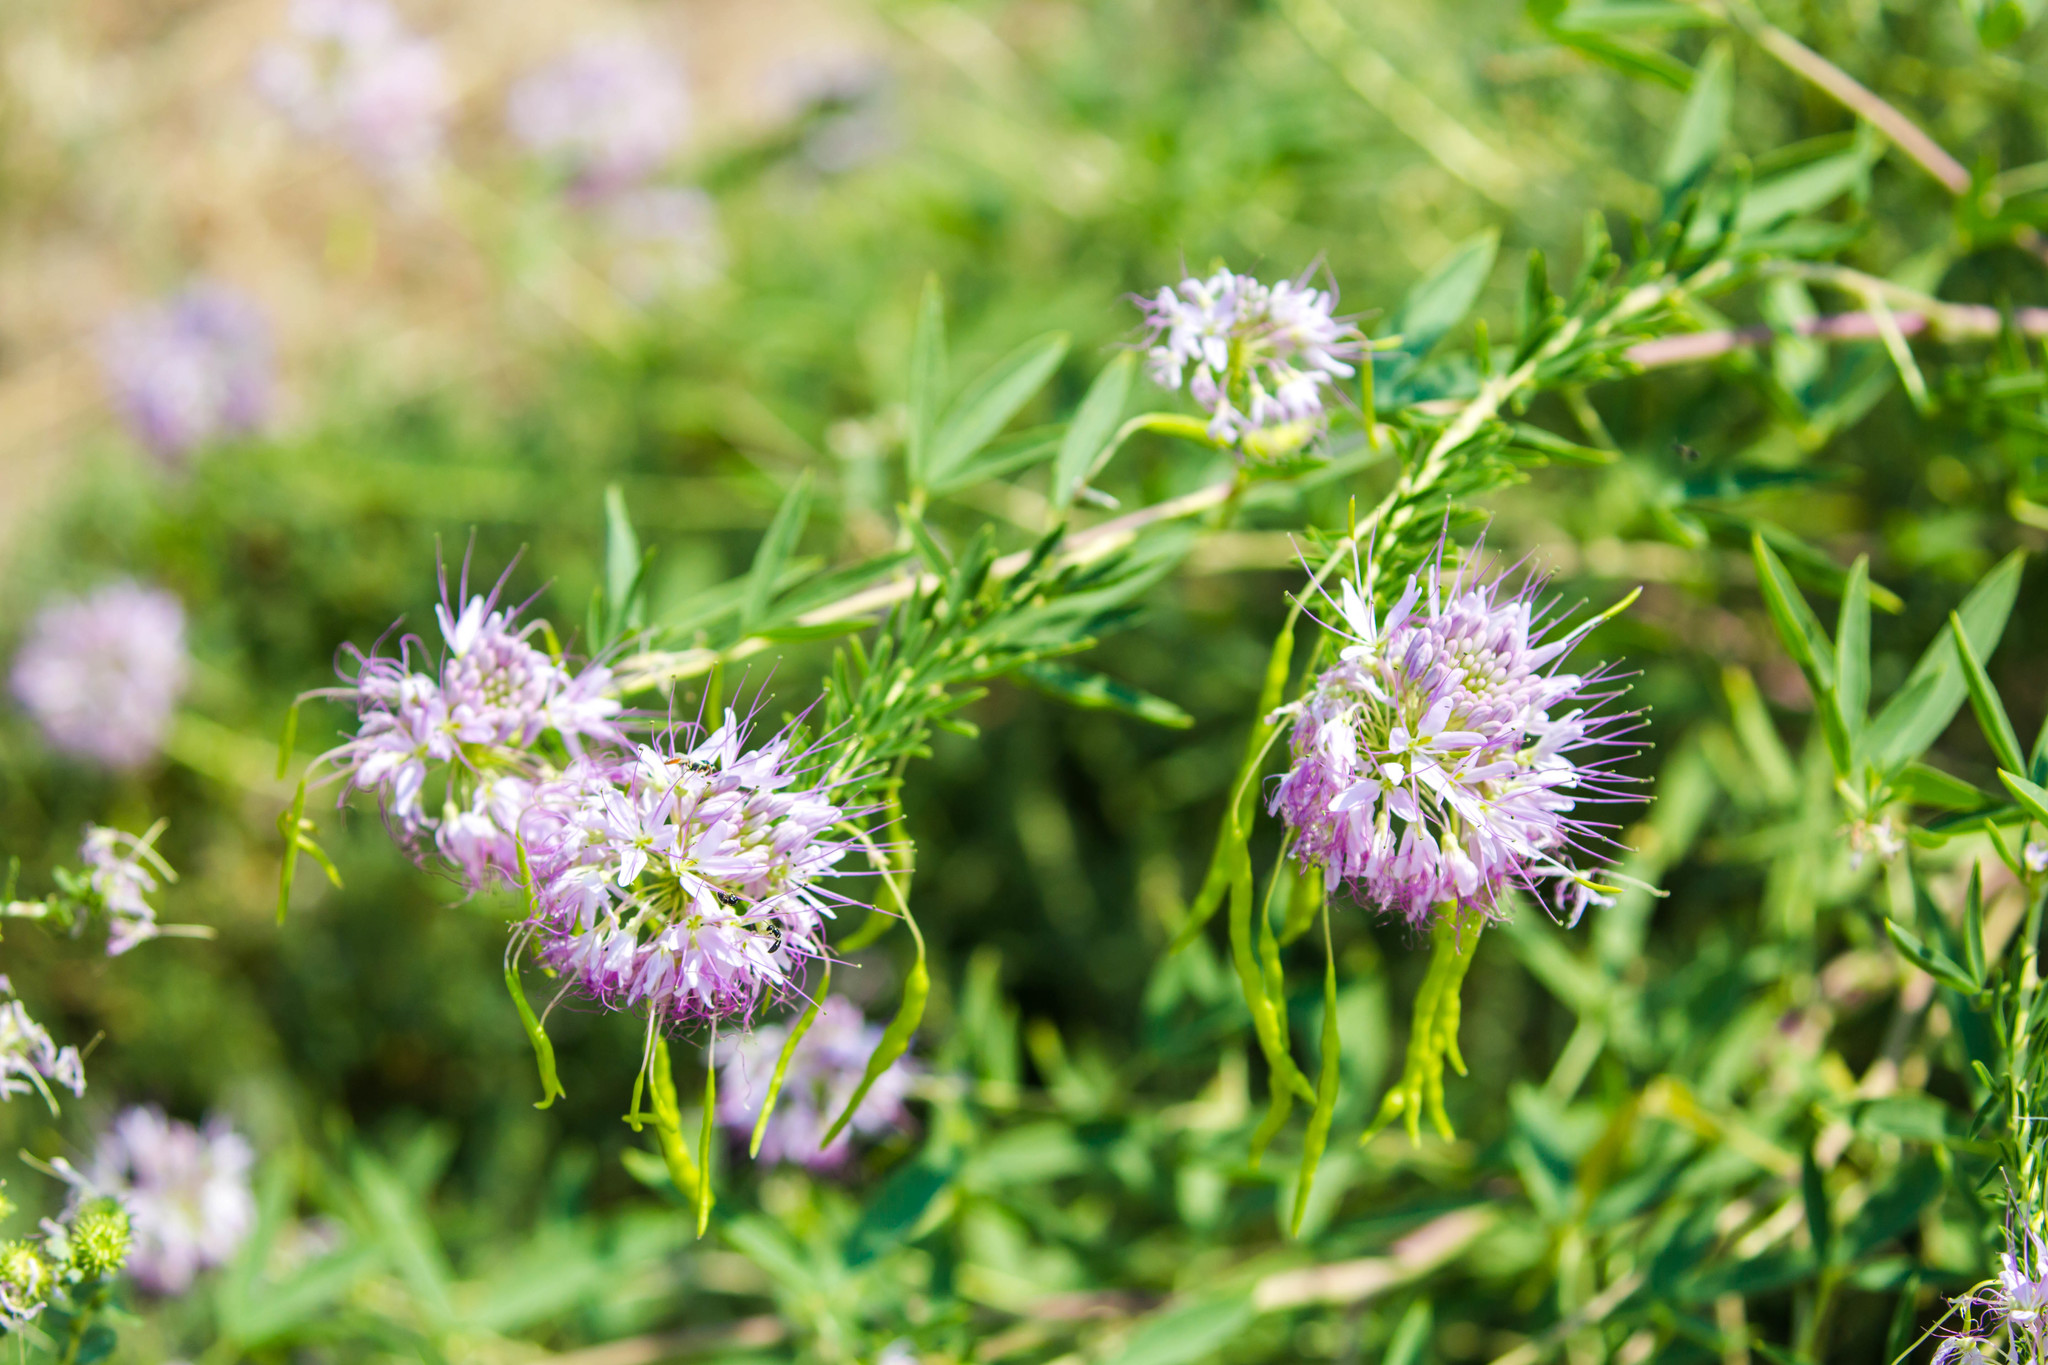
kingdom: Plantae
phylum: Tracheophyta
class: Magnoliopsida
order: Brassicales
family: Cleomaceae
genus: Cleomella
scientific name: Cleomella serrulata
